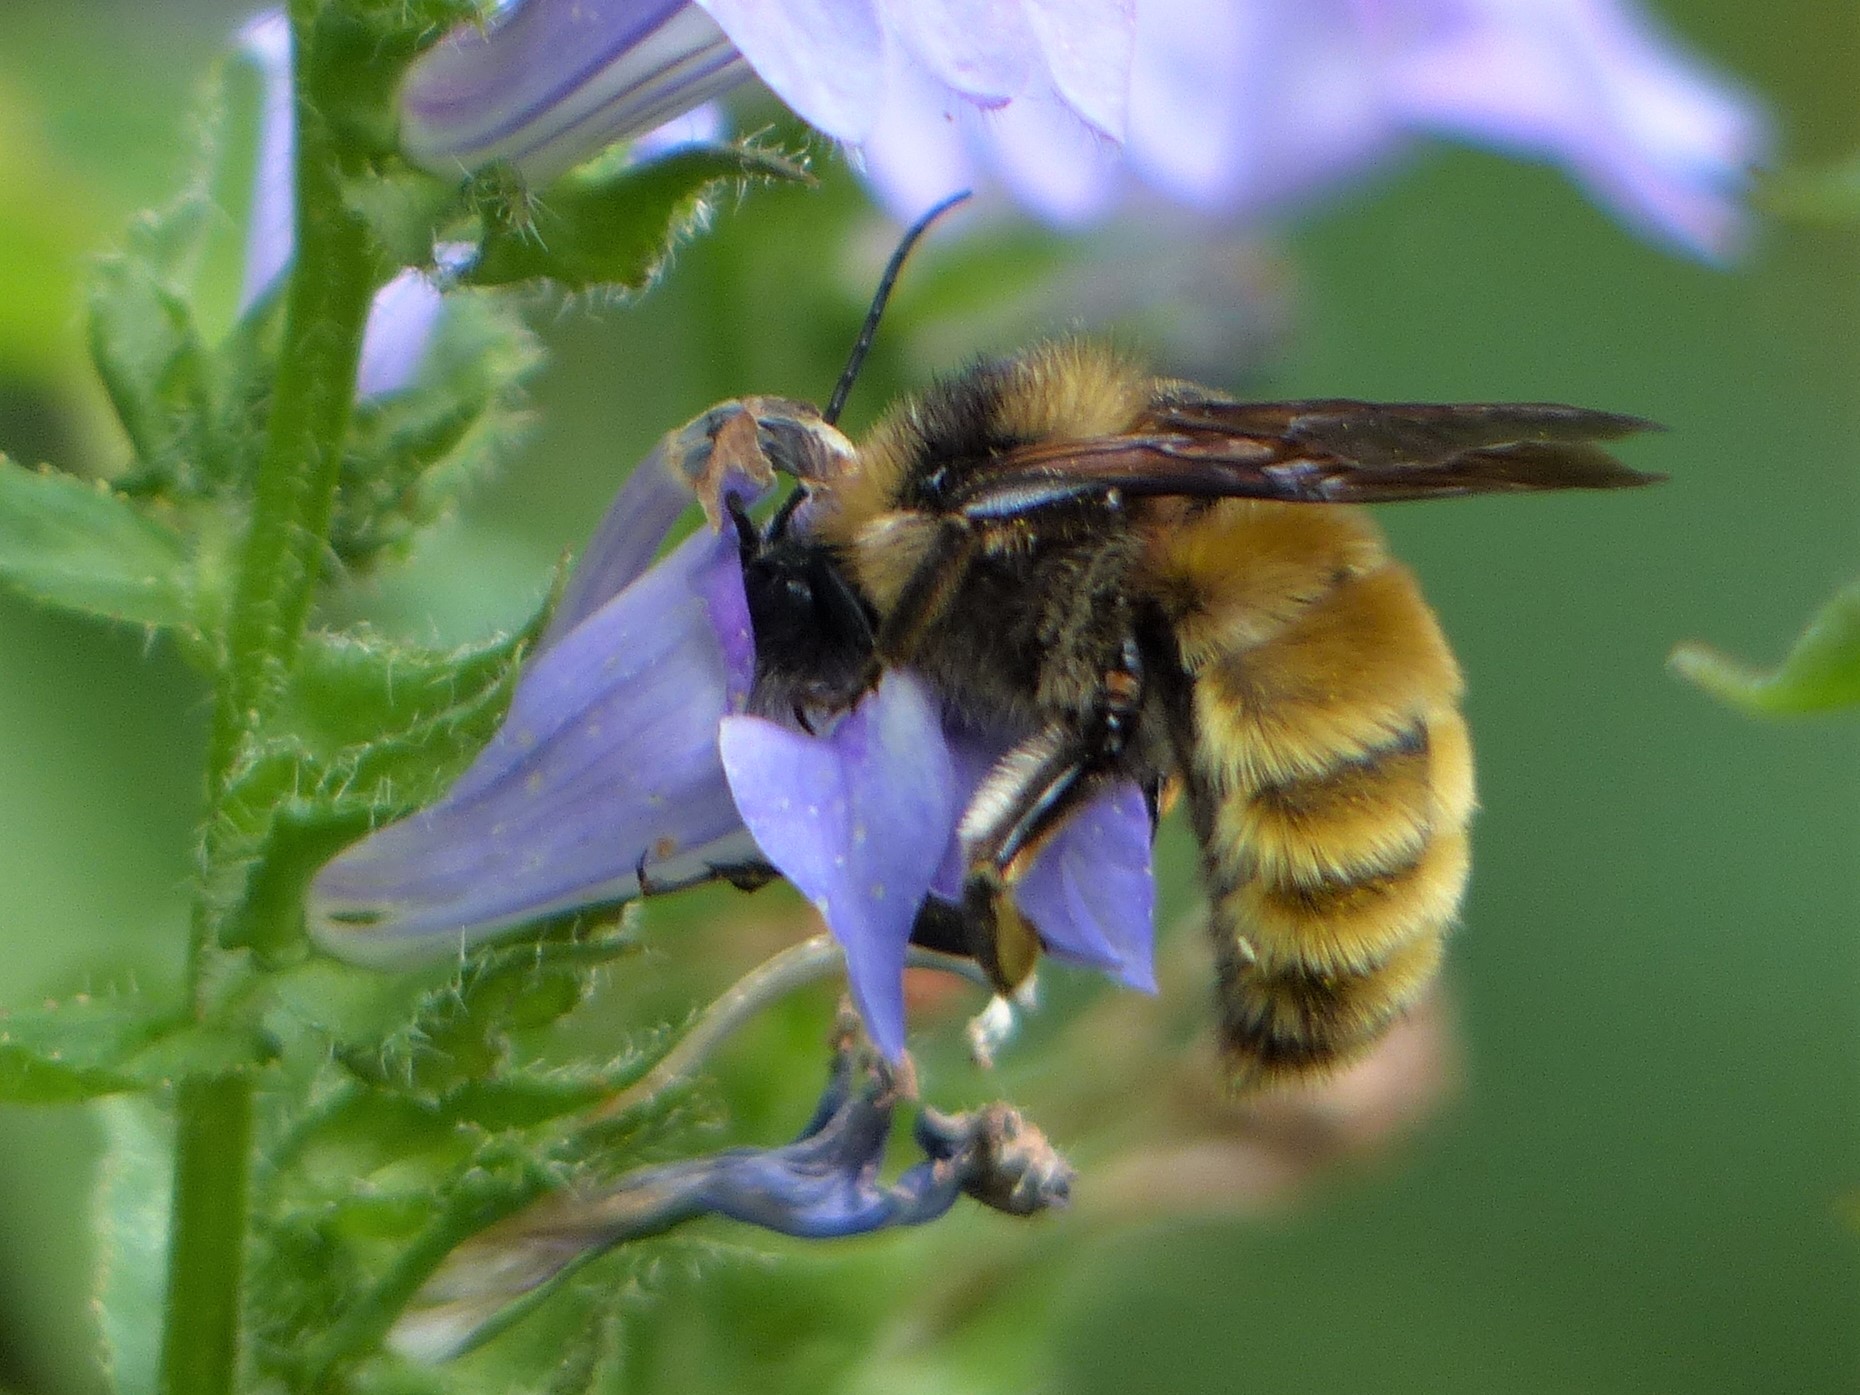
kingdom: Animalia
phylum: Arthropoda
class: Insecta
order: Hymenoptera
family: Apidae
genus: Bombus
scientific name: Bombus pensylvanicus
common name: Bumble bee
